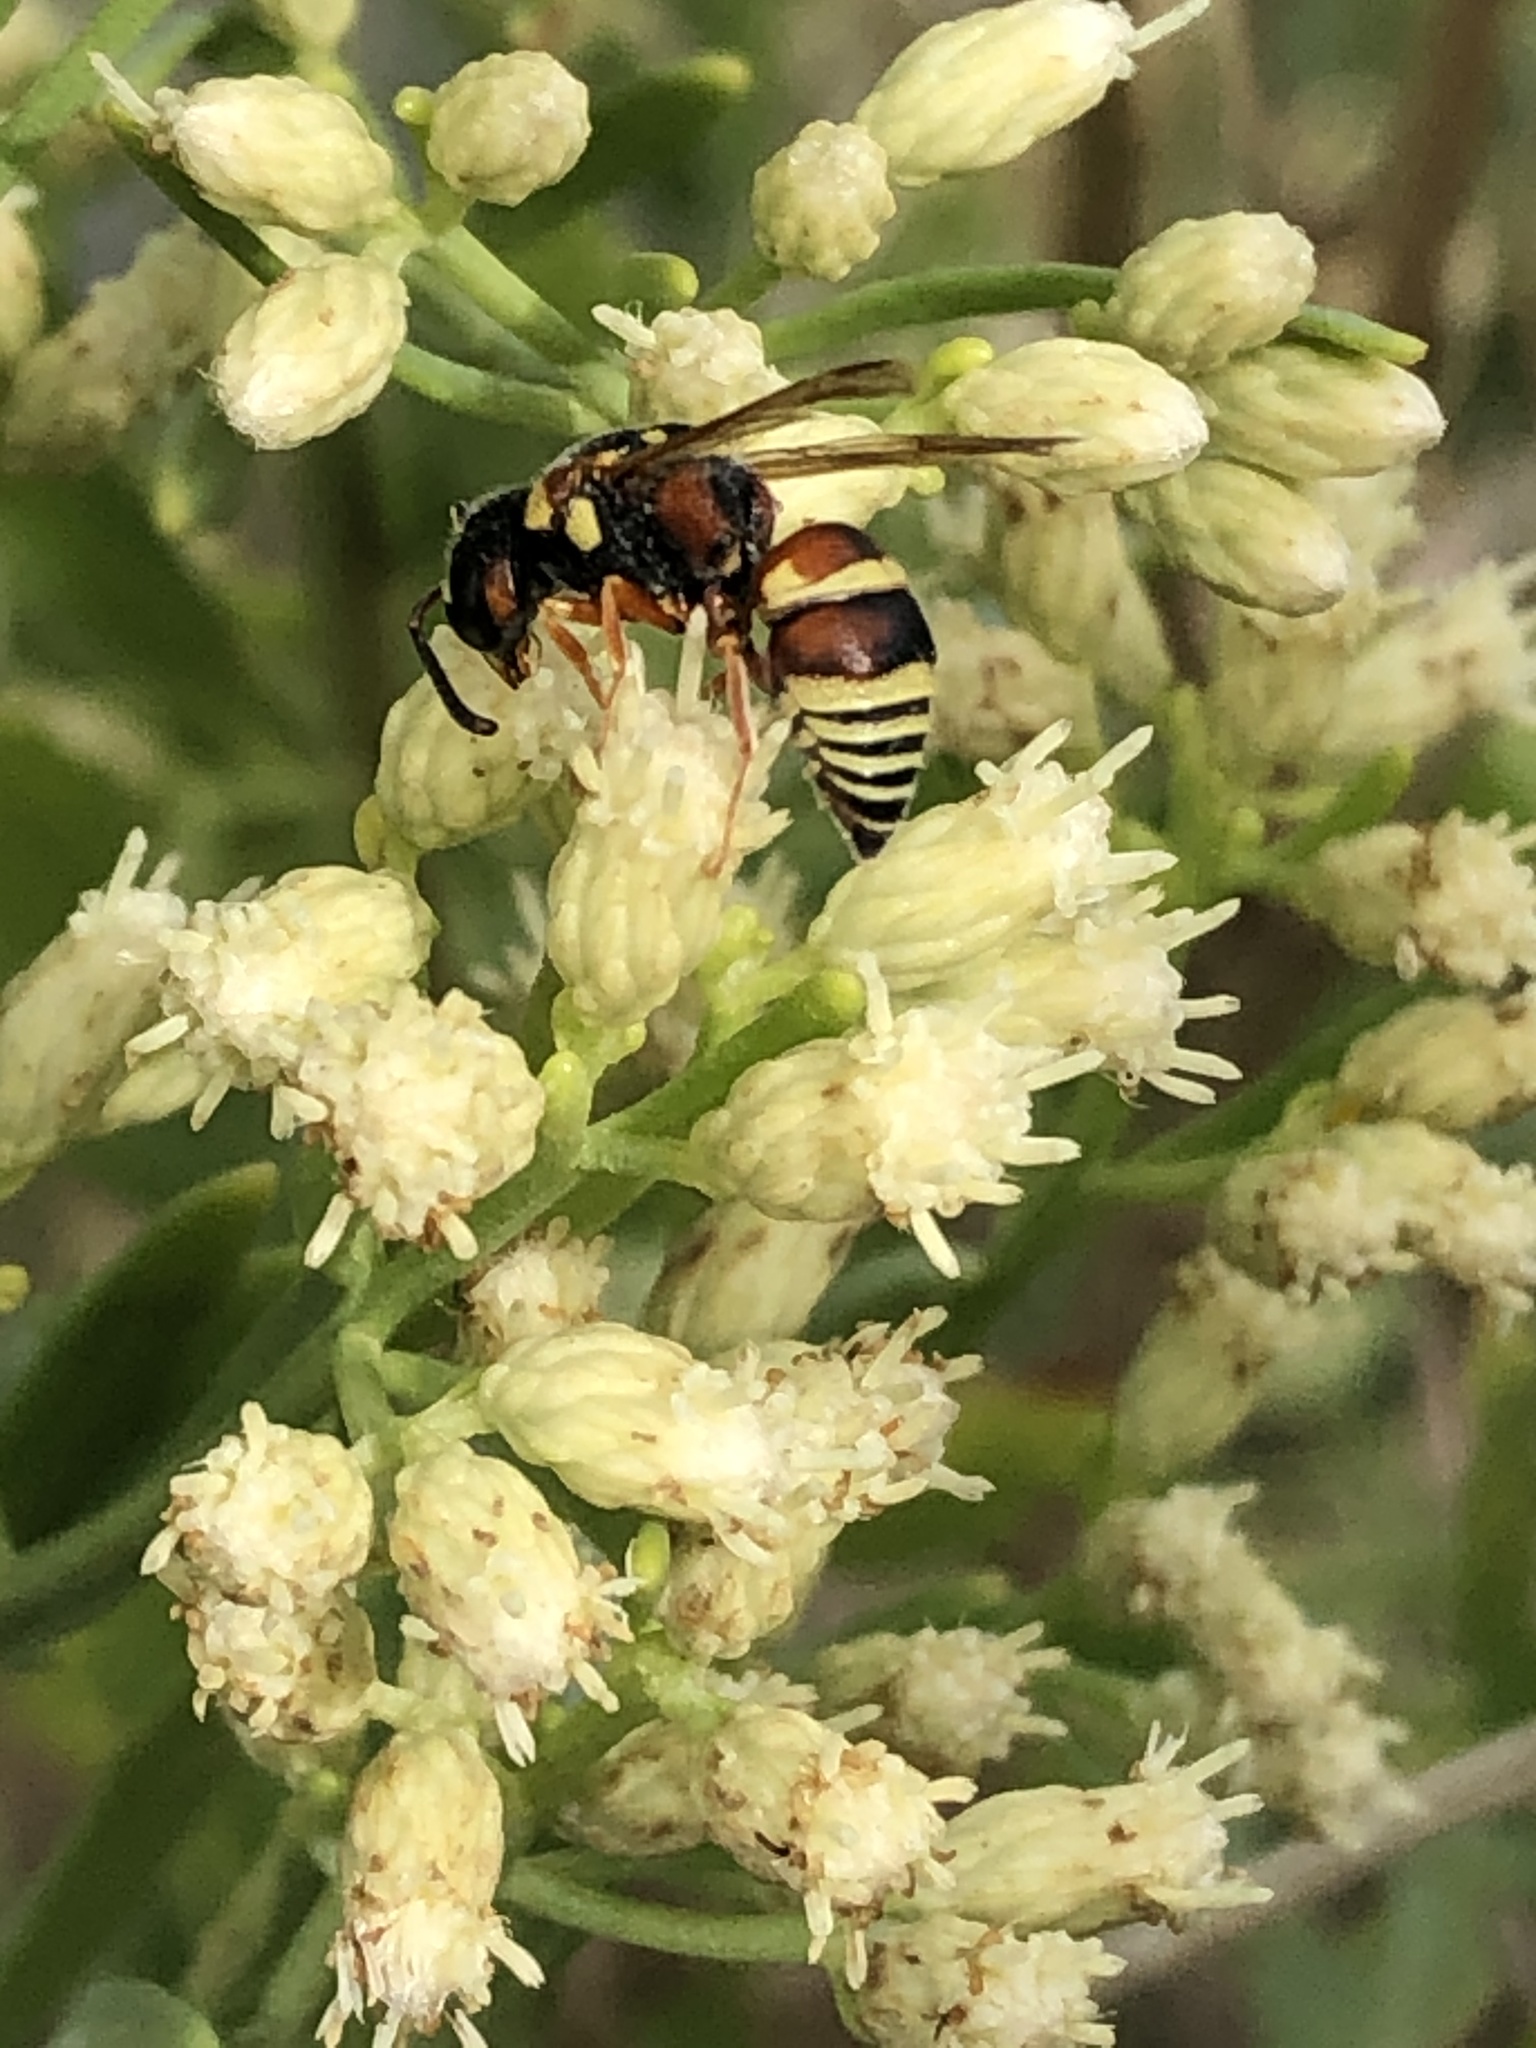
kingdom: Animalia
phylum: Arthropoda
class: Insecta
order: Hymenoptera
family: Eumenidae
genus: Euodynerus
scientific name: Euodynerus annulatus
